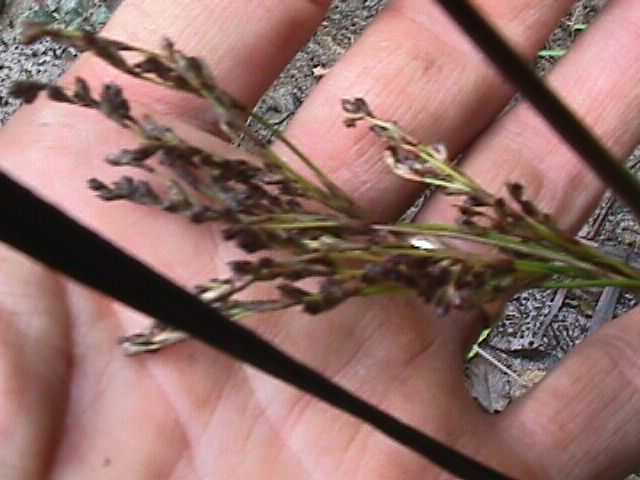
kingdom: Plantae
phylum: Tracheophyta
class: Liliopsida
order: Poales
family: Juncaceae
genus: Juncus
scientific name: Juncus kraussii
